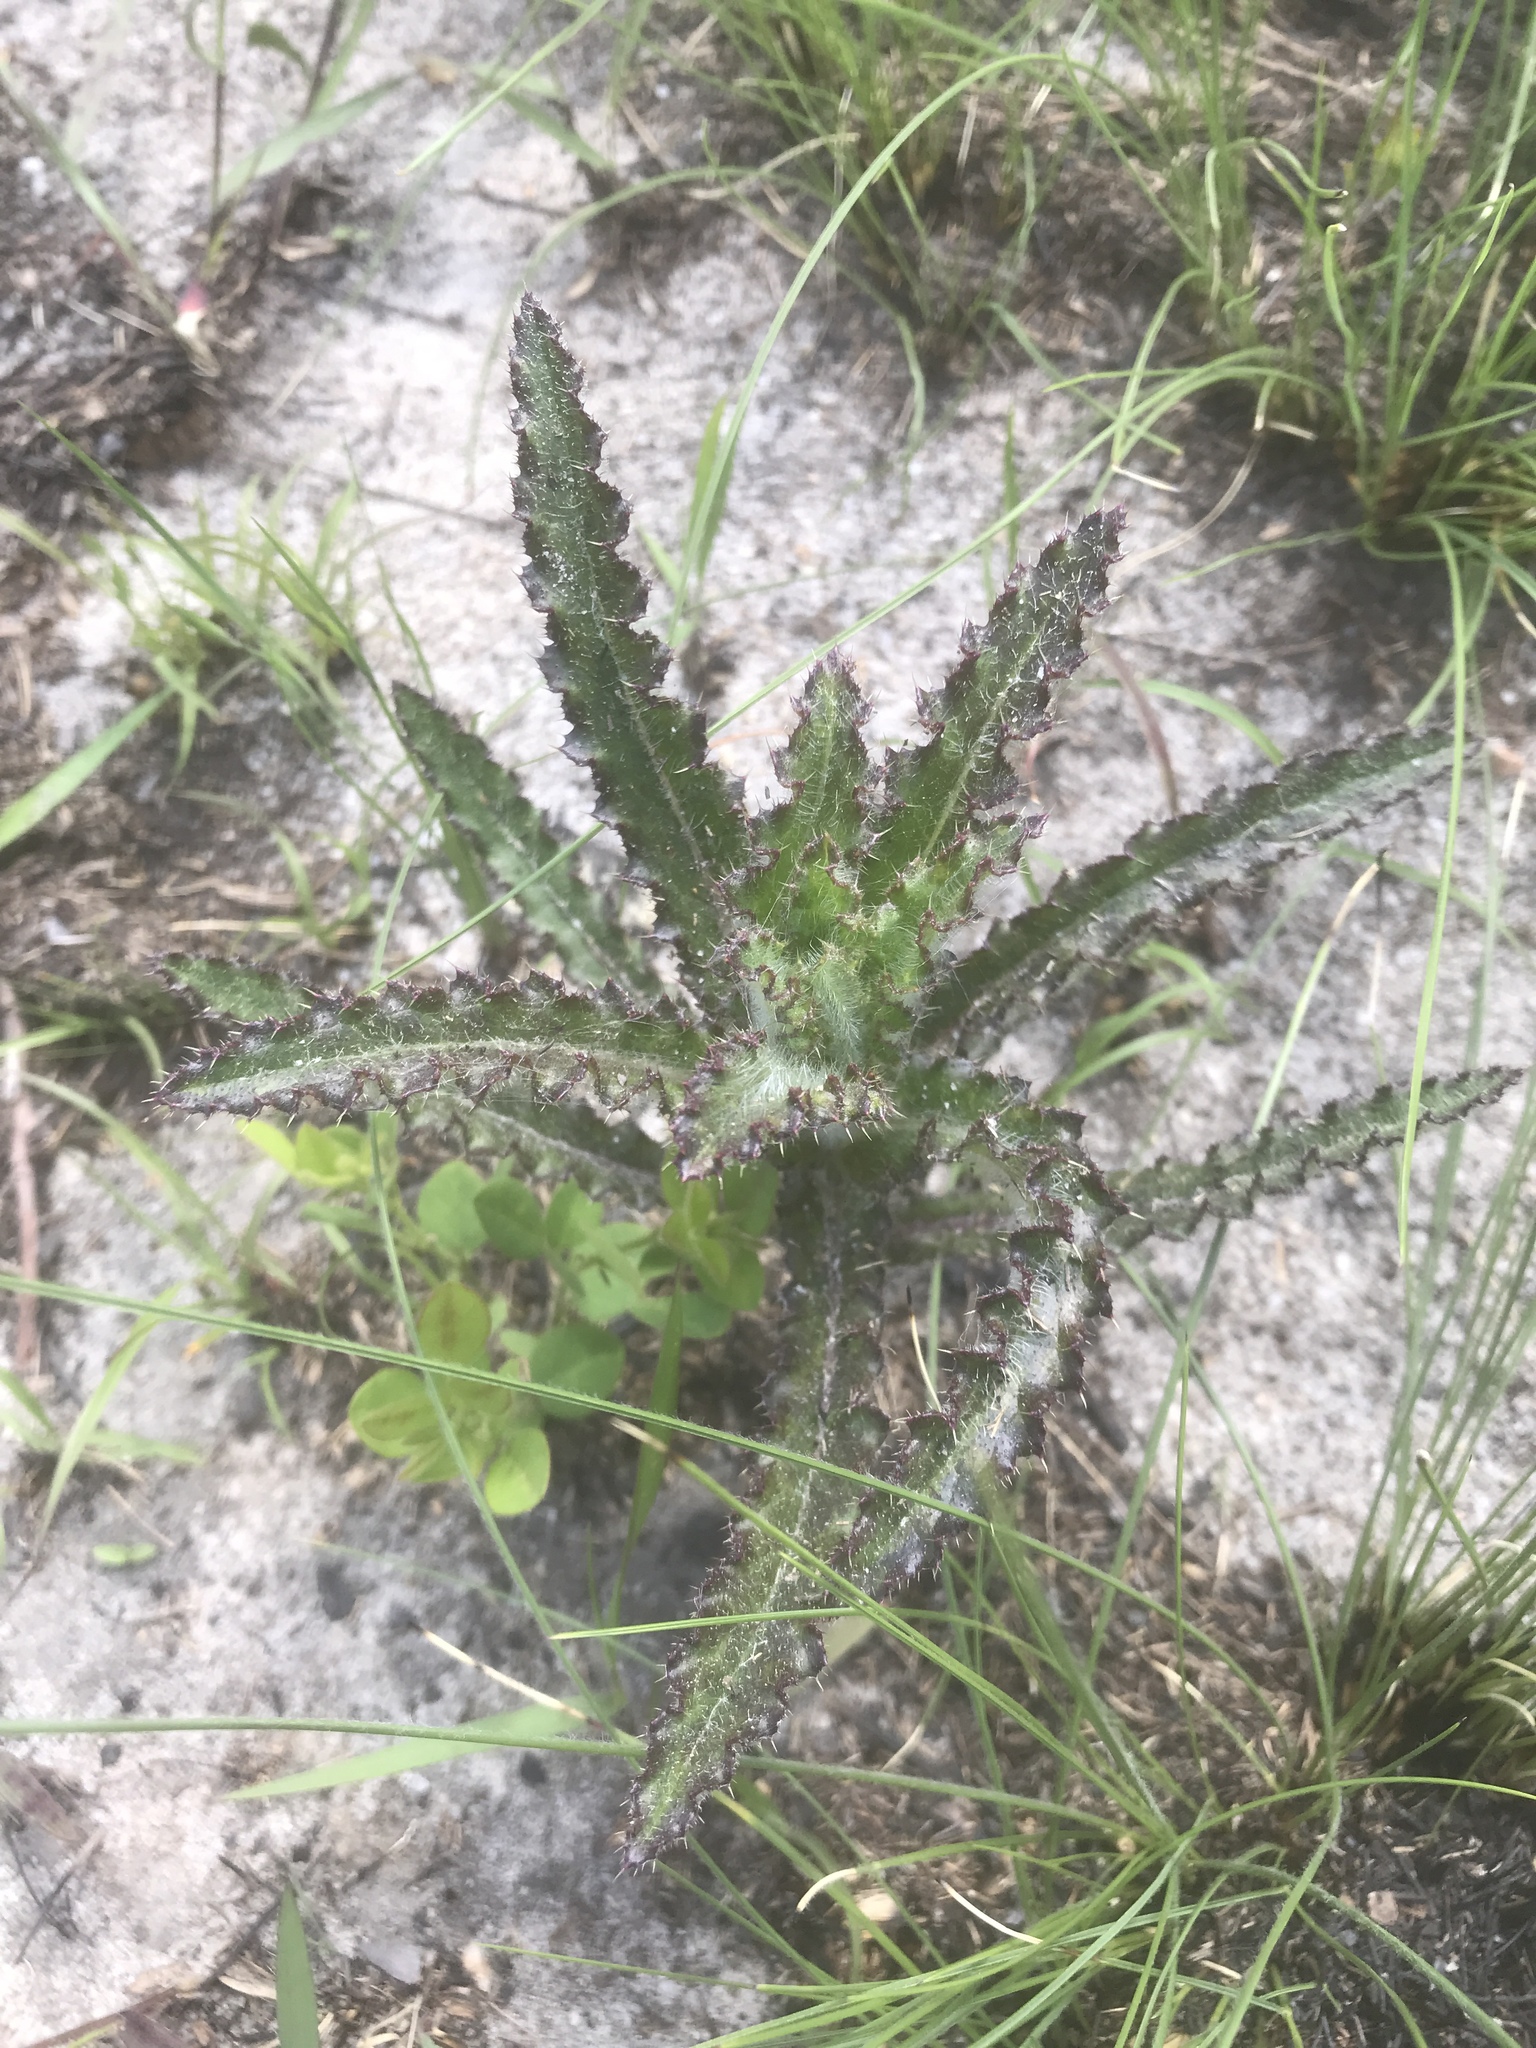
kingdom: Plantae
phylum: Tracheophyta
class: Magnoliopsida
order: Asterales
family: Asteraceae
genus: Cirsium
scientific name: Cirsium repandum
